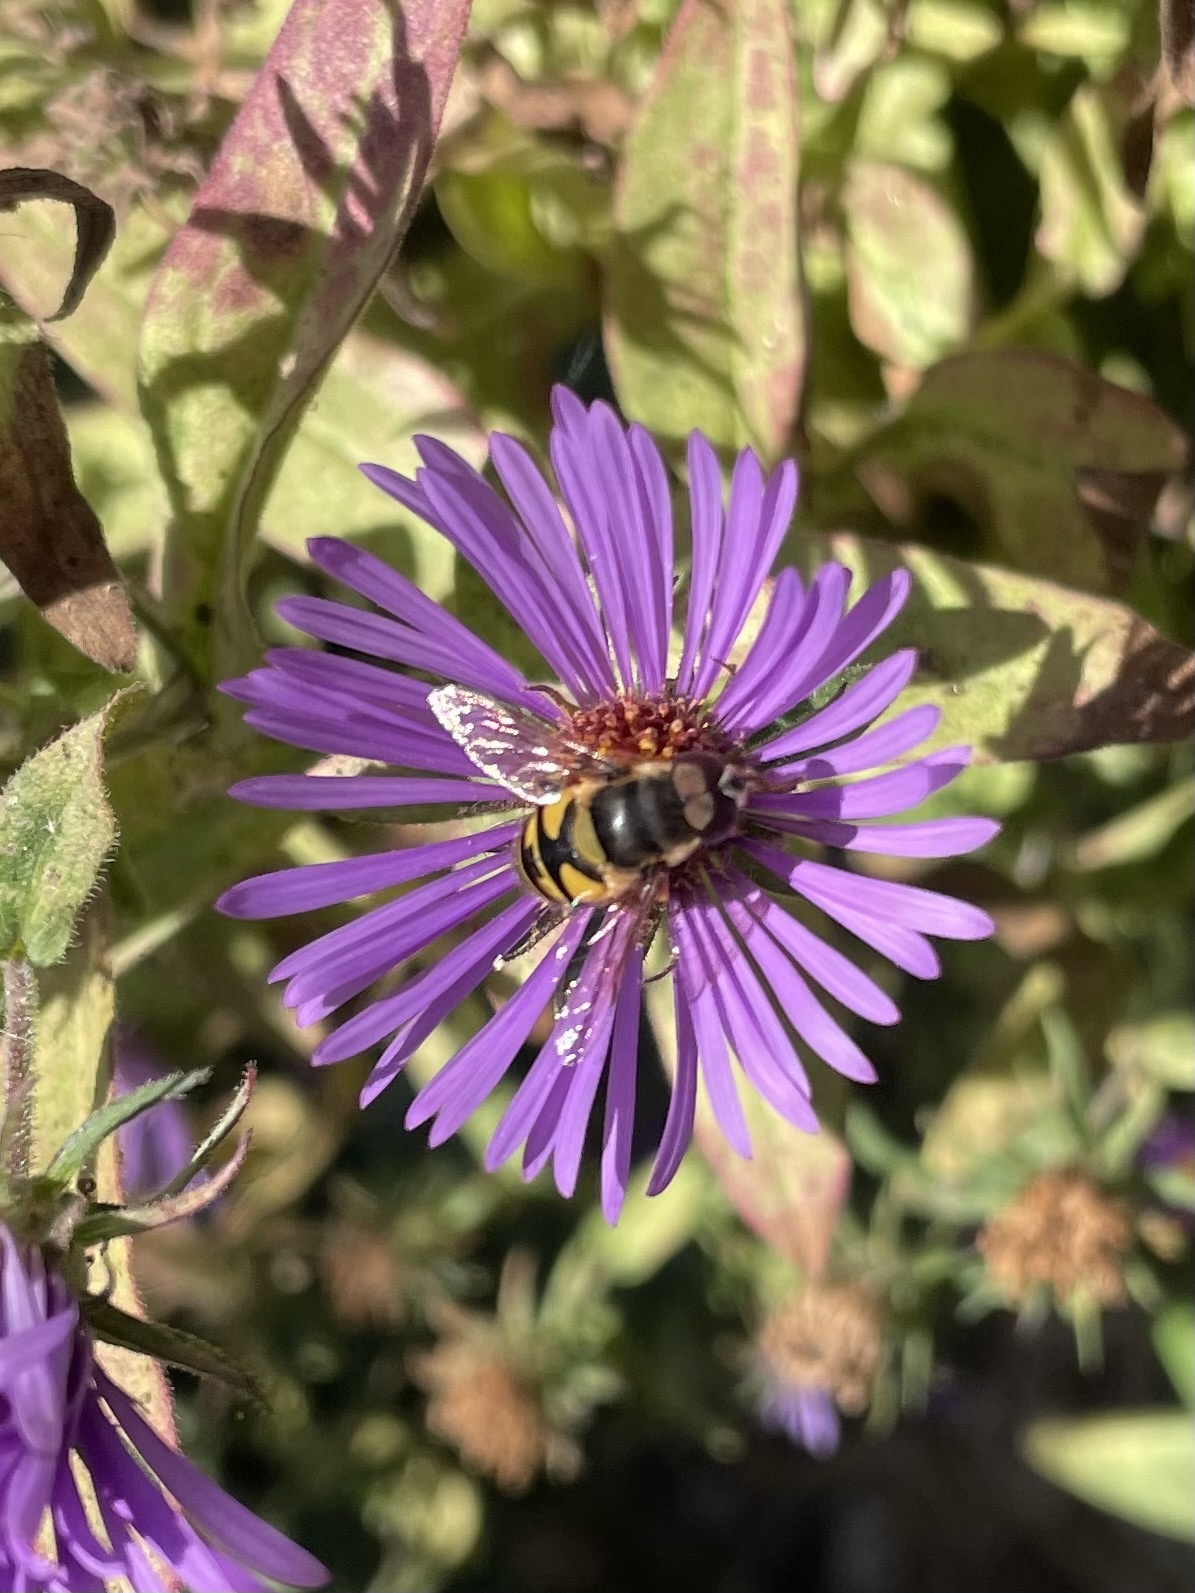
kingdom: Animalia
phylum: Arthropoda
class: Insecta
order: Diptera
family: Syrphidae
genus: Eristalis
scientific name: Eristalis transversa
